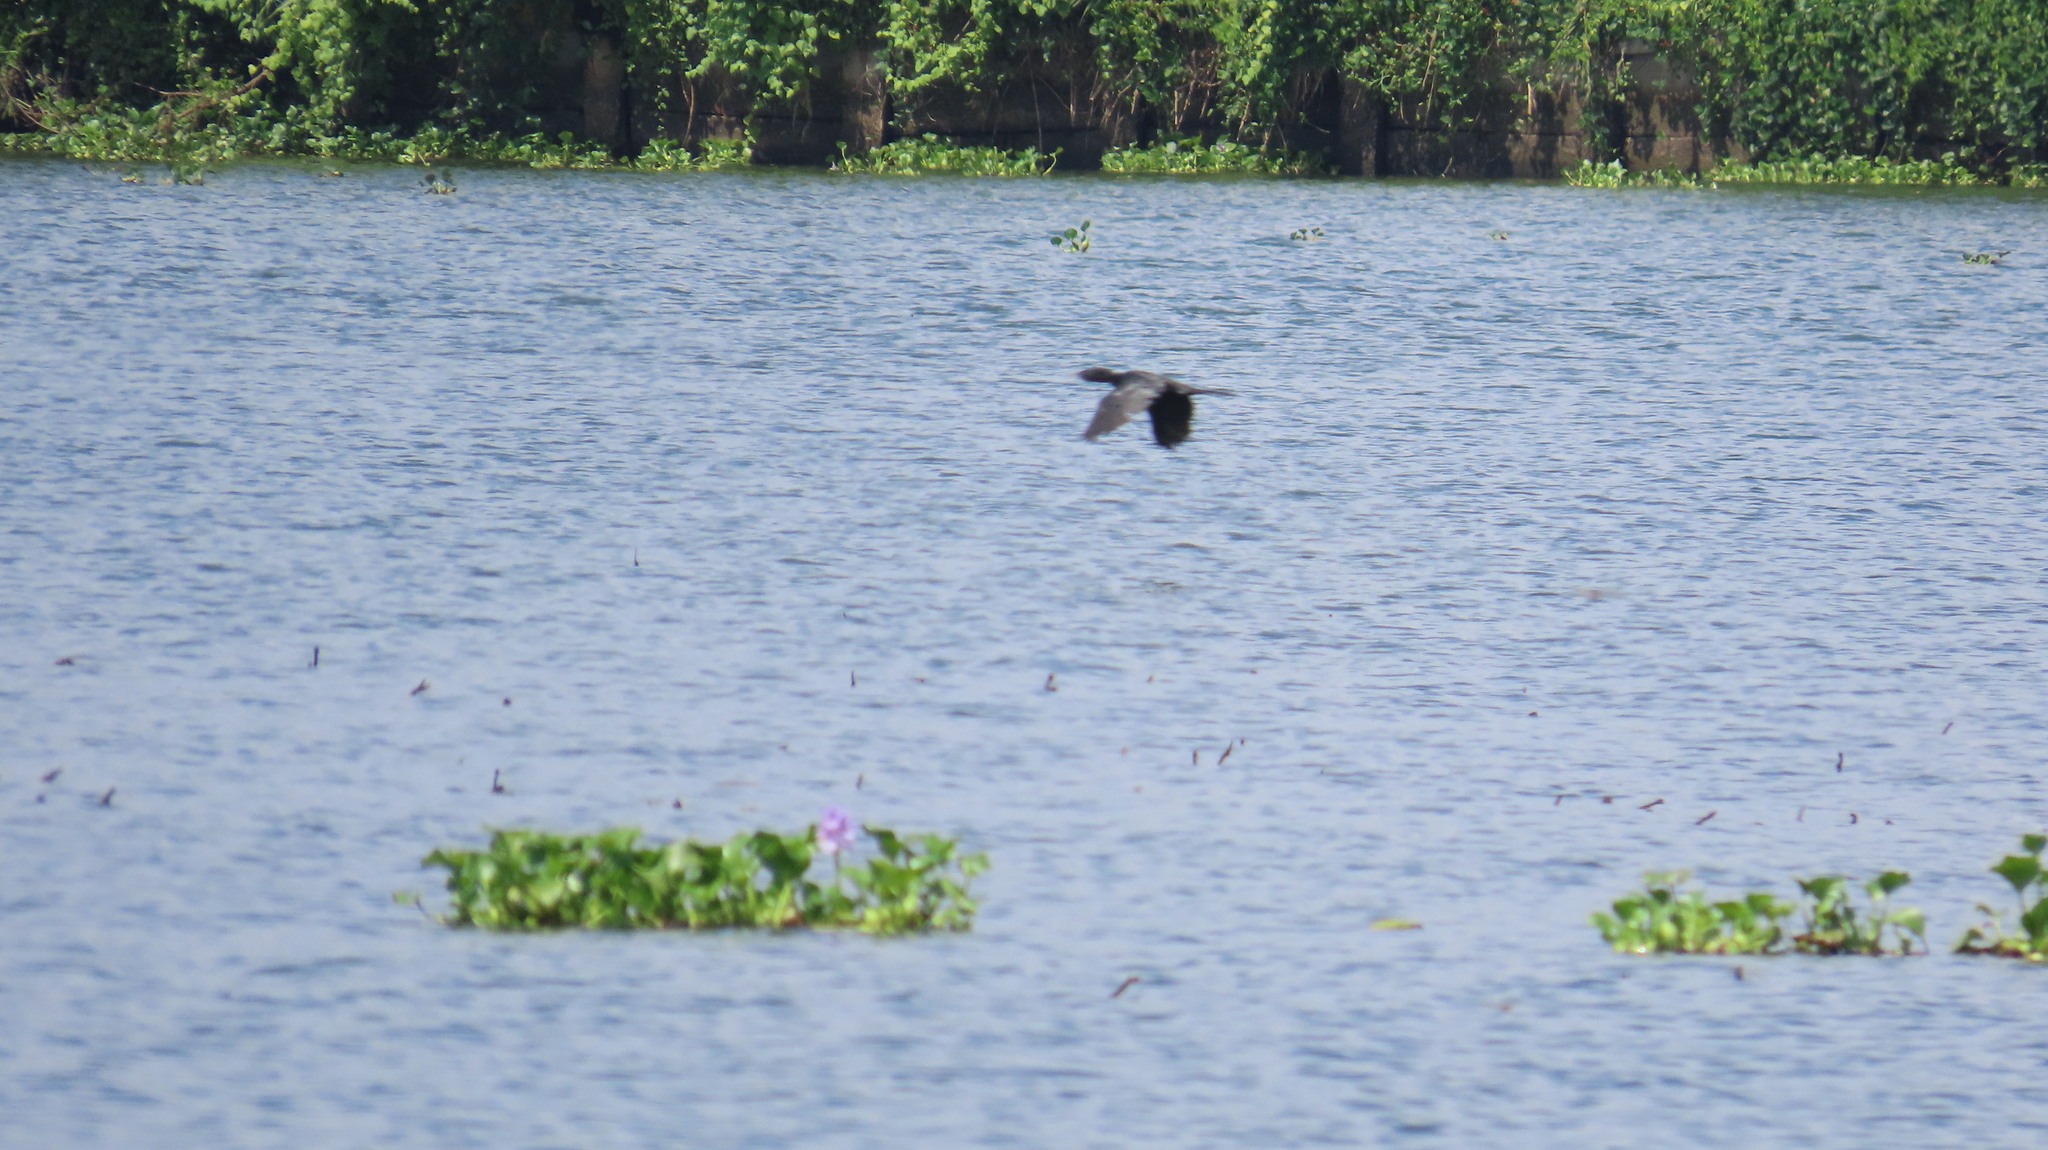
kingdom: Animalia
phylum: Chordata
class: Aves
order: Suliformes
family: Phalacrocoracidae
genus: Microcarbo
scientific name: Microcarbo niger
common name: Little cormorant
